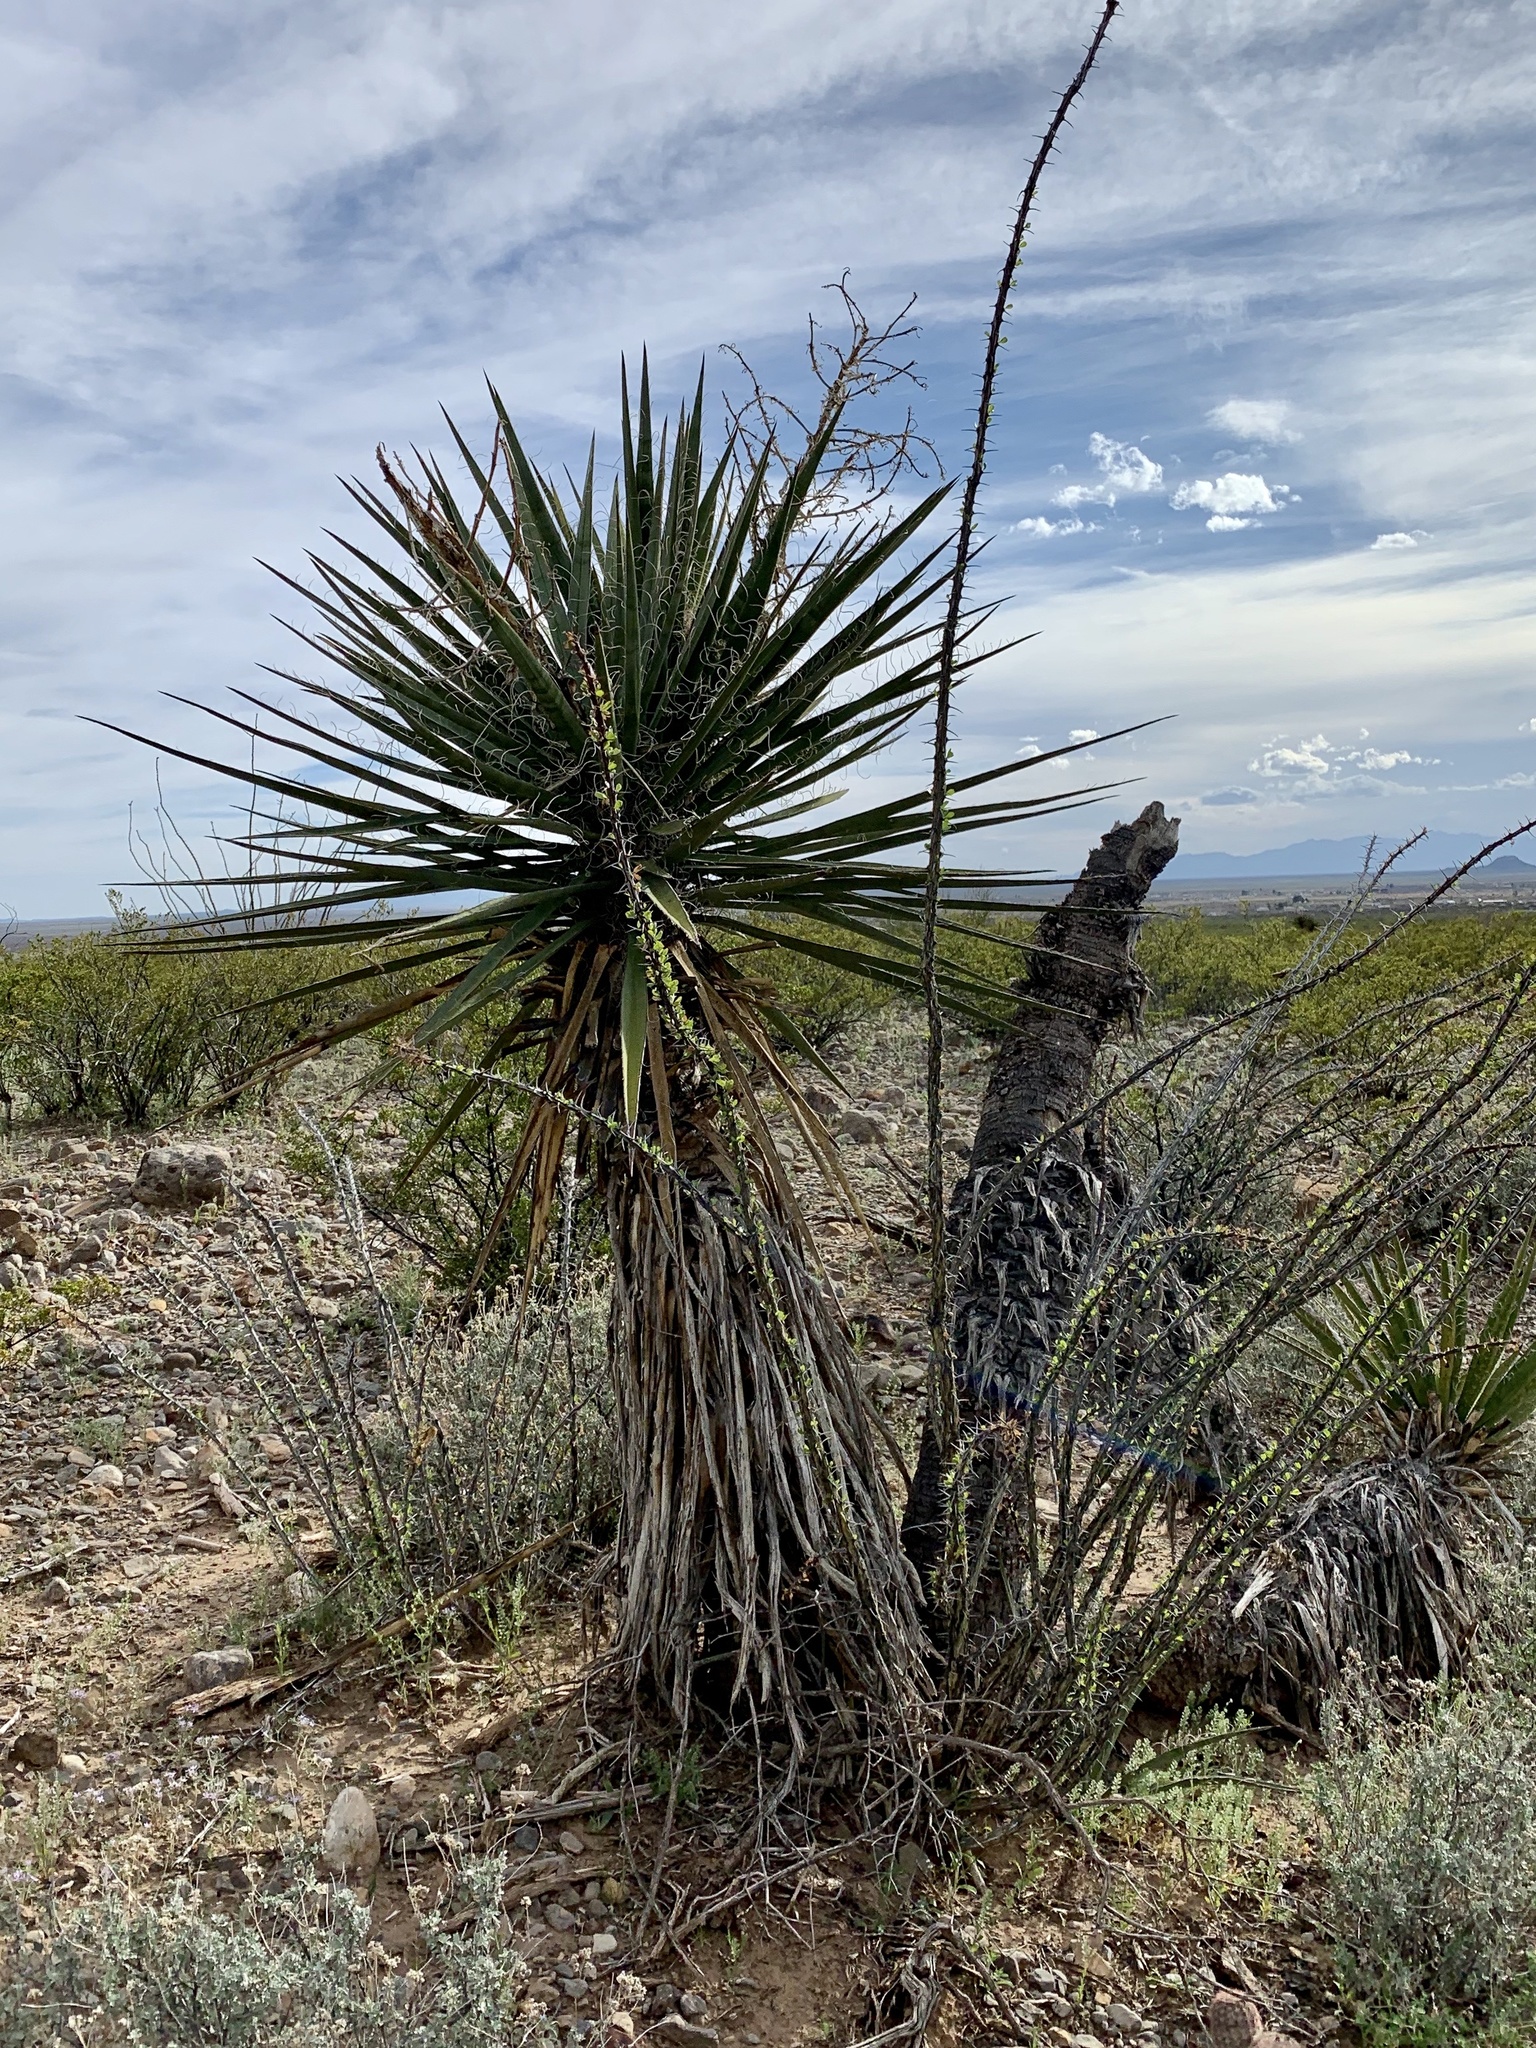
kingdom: Plantae
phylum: Tracheophyta
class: Liliopsida
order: Asparagales
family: Asparagaceae
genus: Yucca
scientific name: Yucca treculiana
